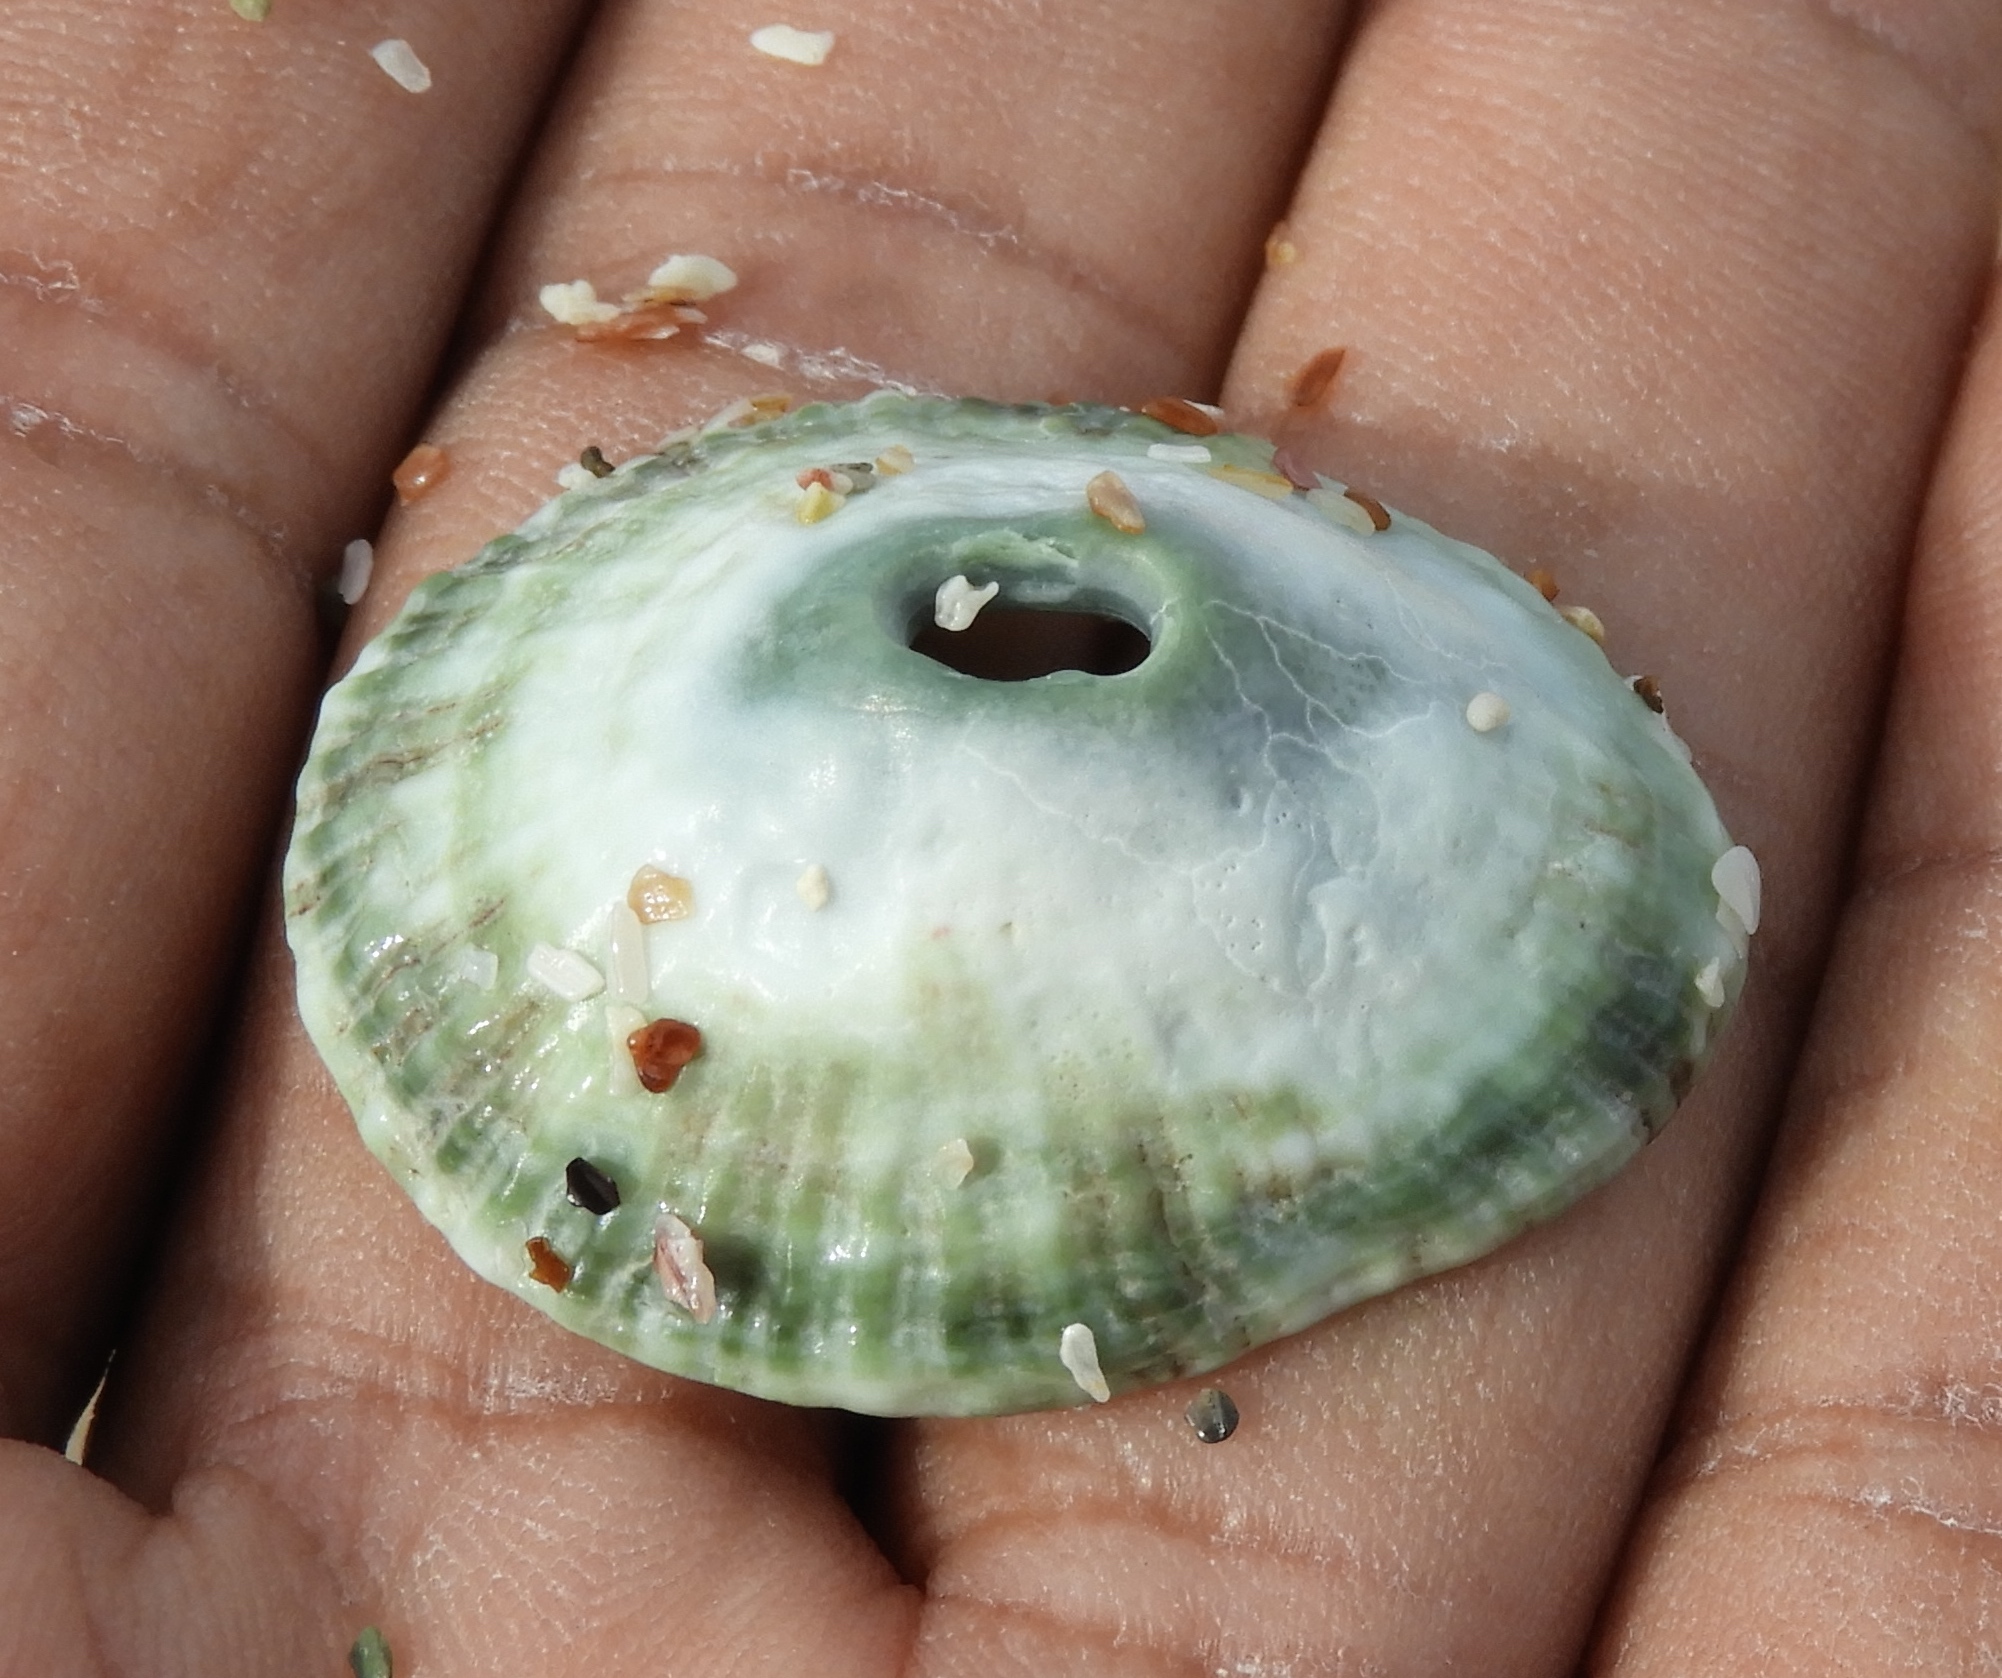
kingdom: Animalia
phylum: Mollusca
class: Gastropoda
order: Lepetellida
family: Fissurellidae
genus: Fissurella
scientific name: Fissurella virescens
